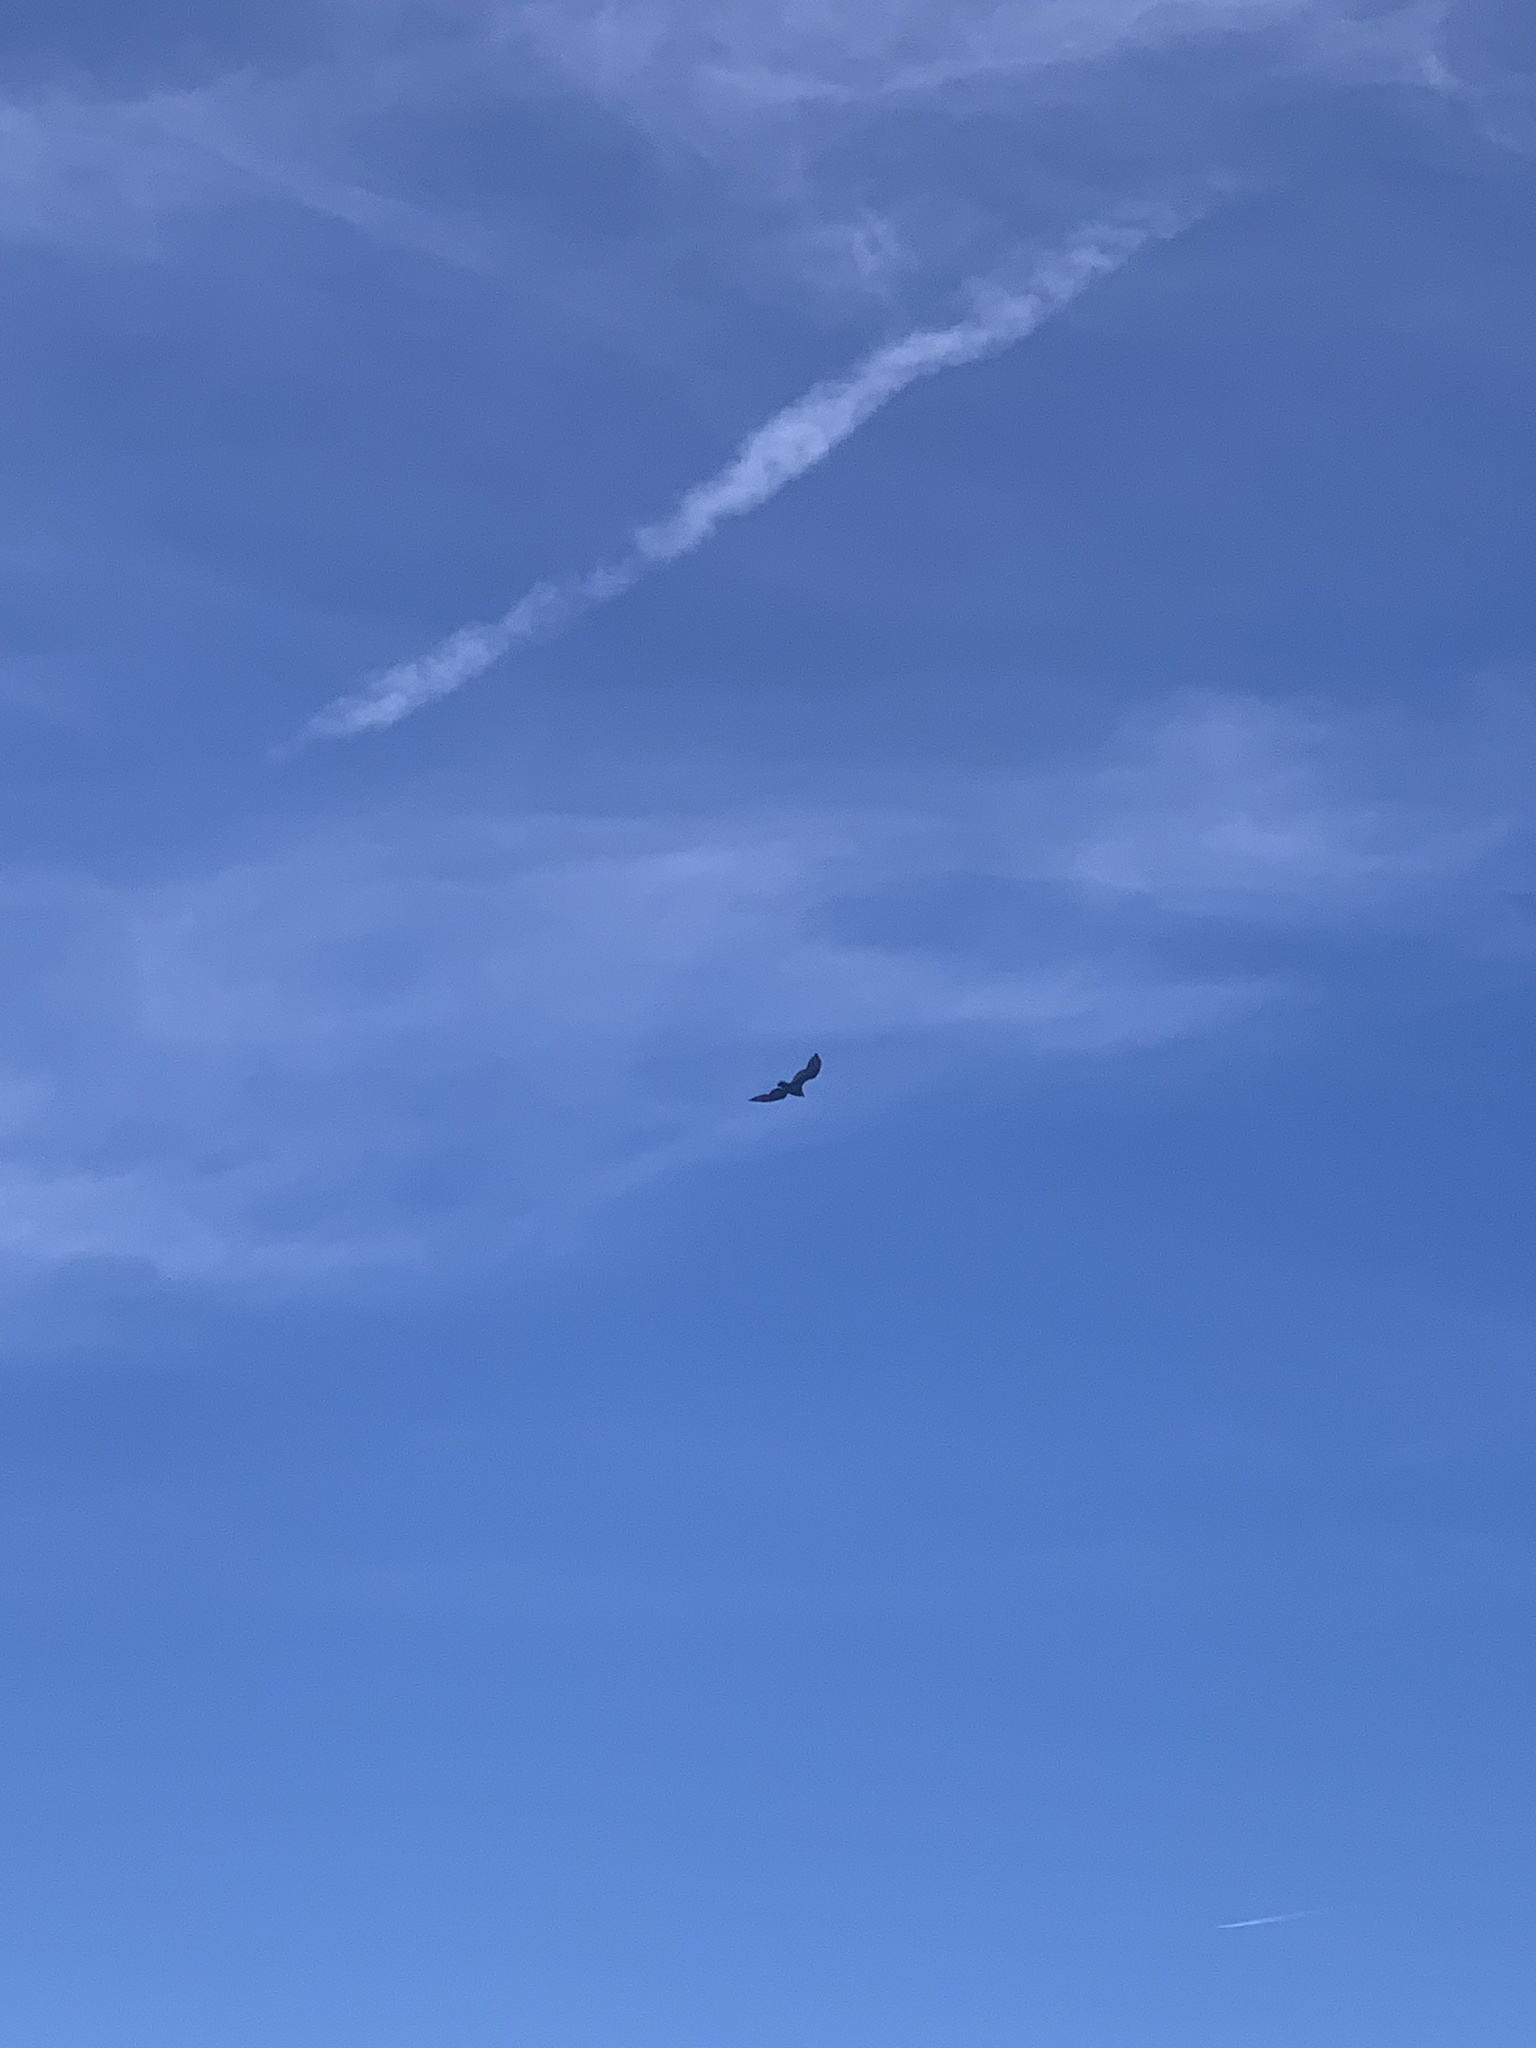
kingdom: Animalia
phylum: Chordata
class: Aves
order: Accipitriformes
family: Cathartidae
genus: Cathartes
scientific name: Cathartes aura
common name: Turkey vulture
